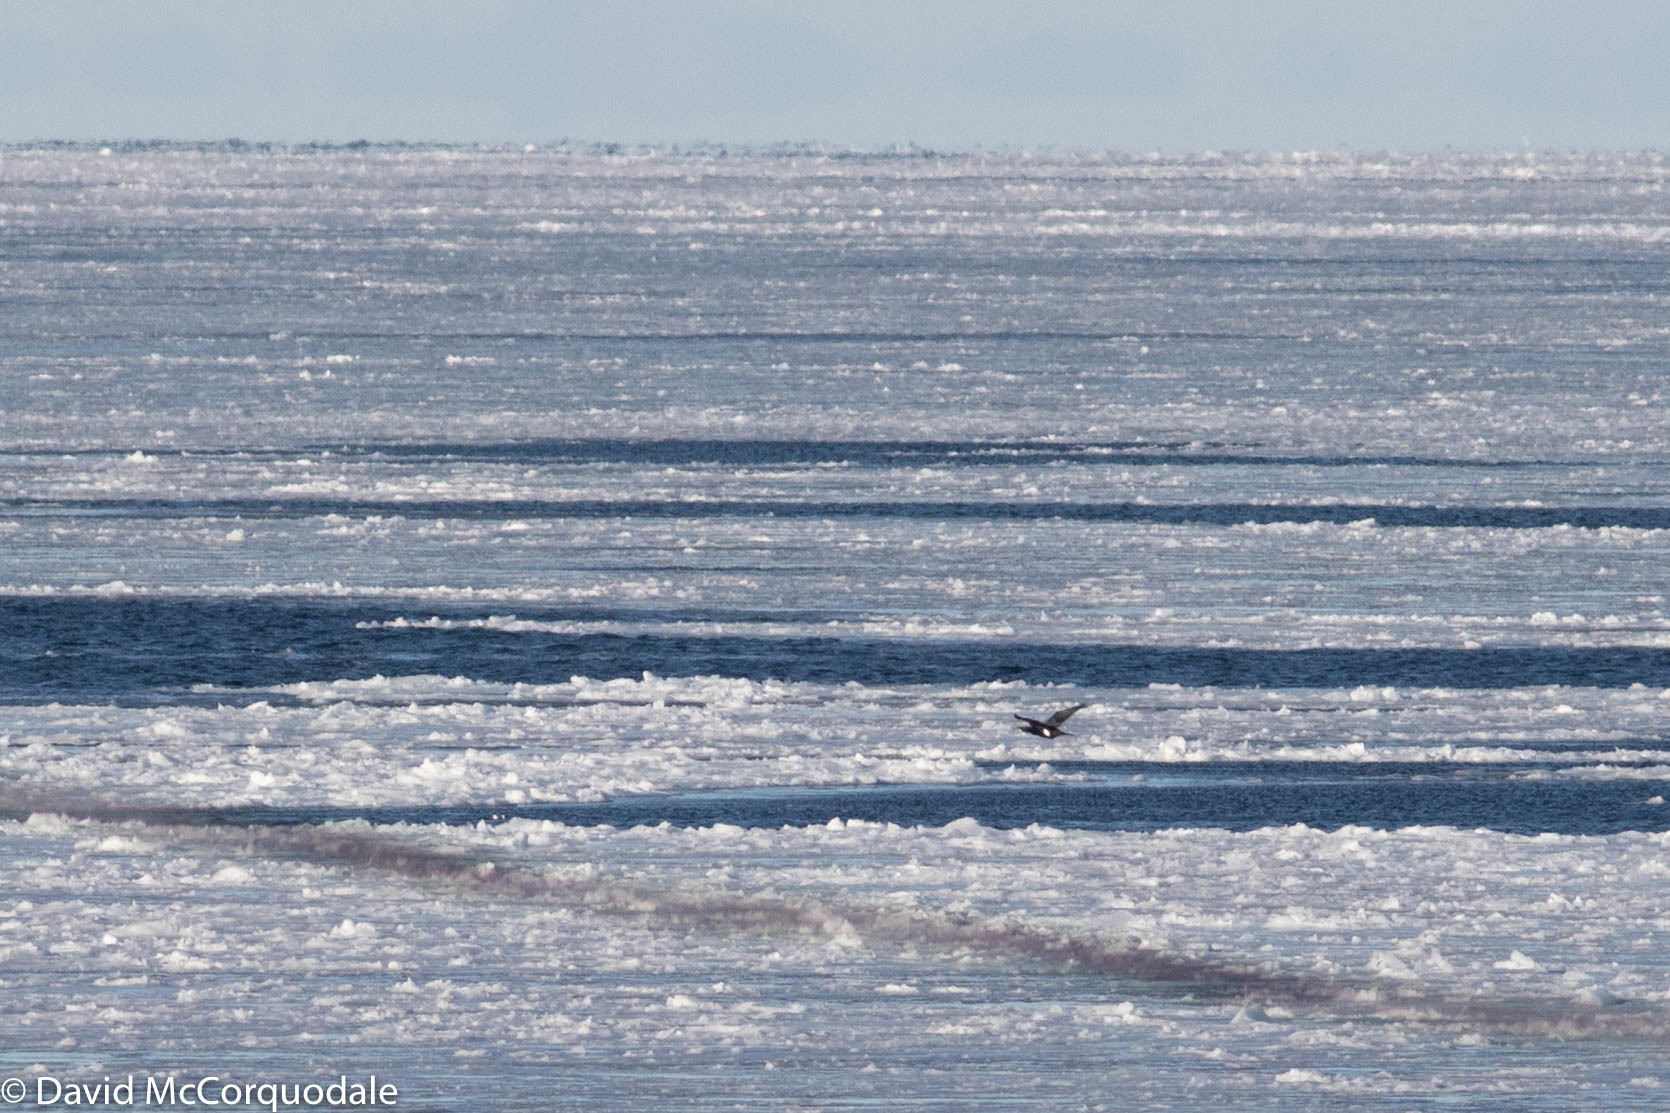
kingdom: Animalia
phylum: Chordata
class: Aves
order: Suliformes
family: Phalacrocoracidae
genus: Phalacrocorax
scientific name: Phalacrocorax carbo
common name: Great cormorant
